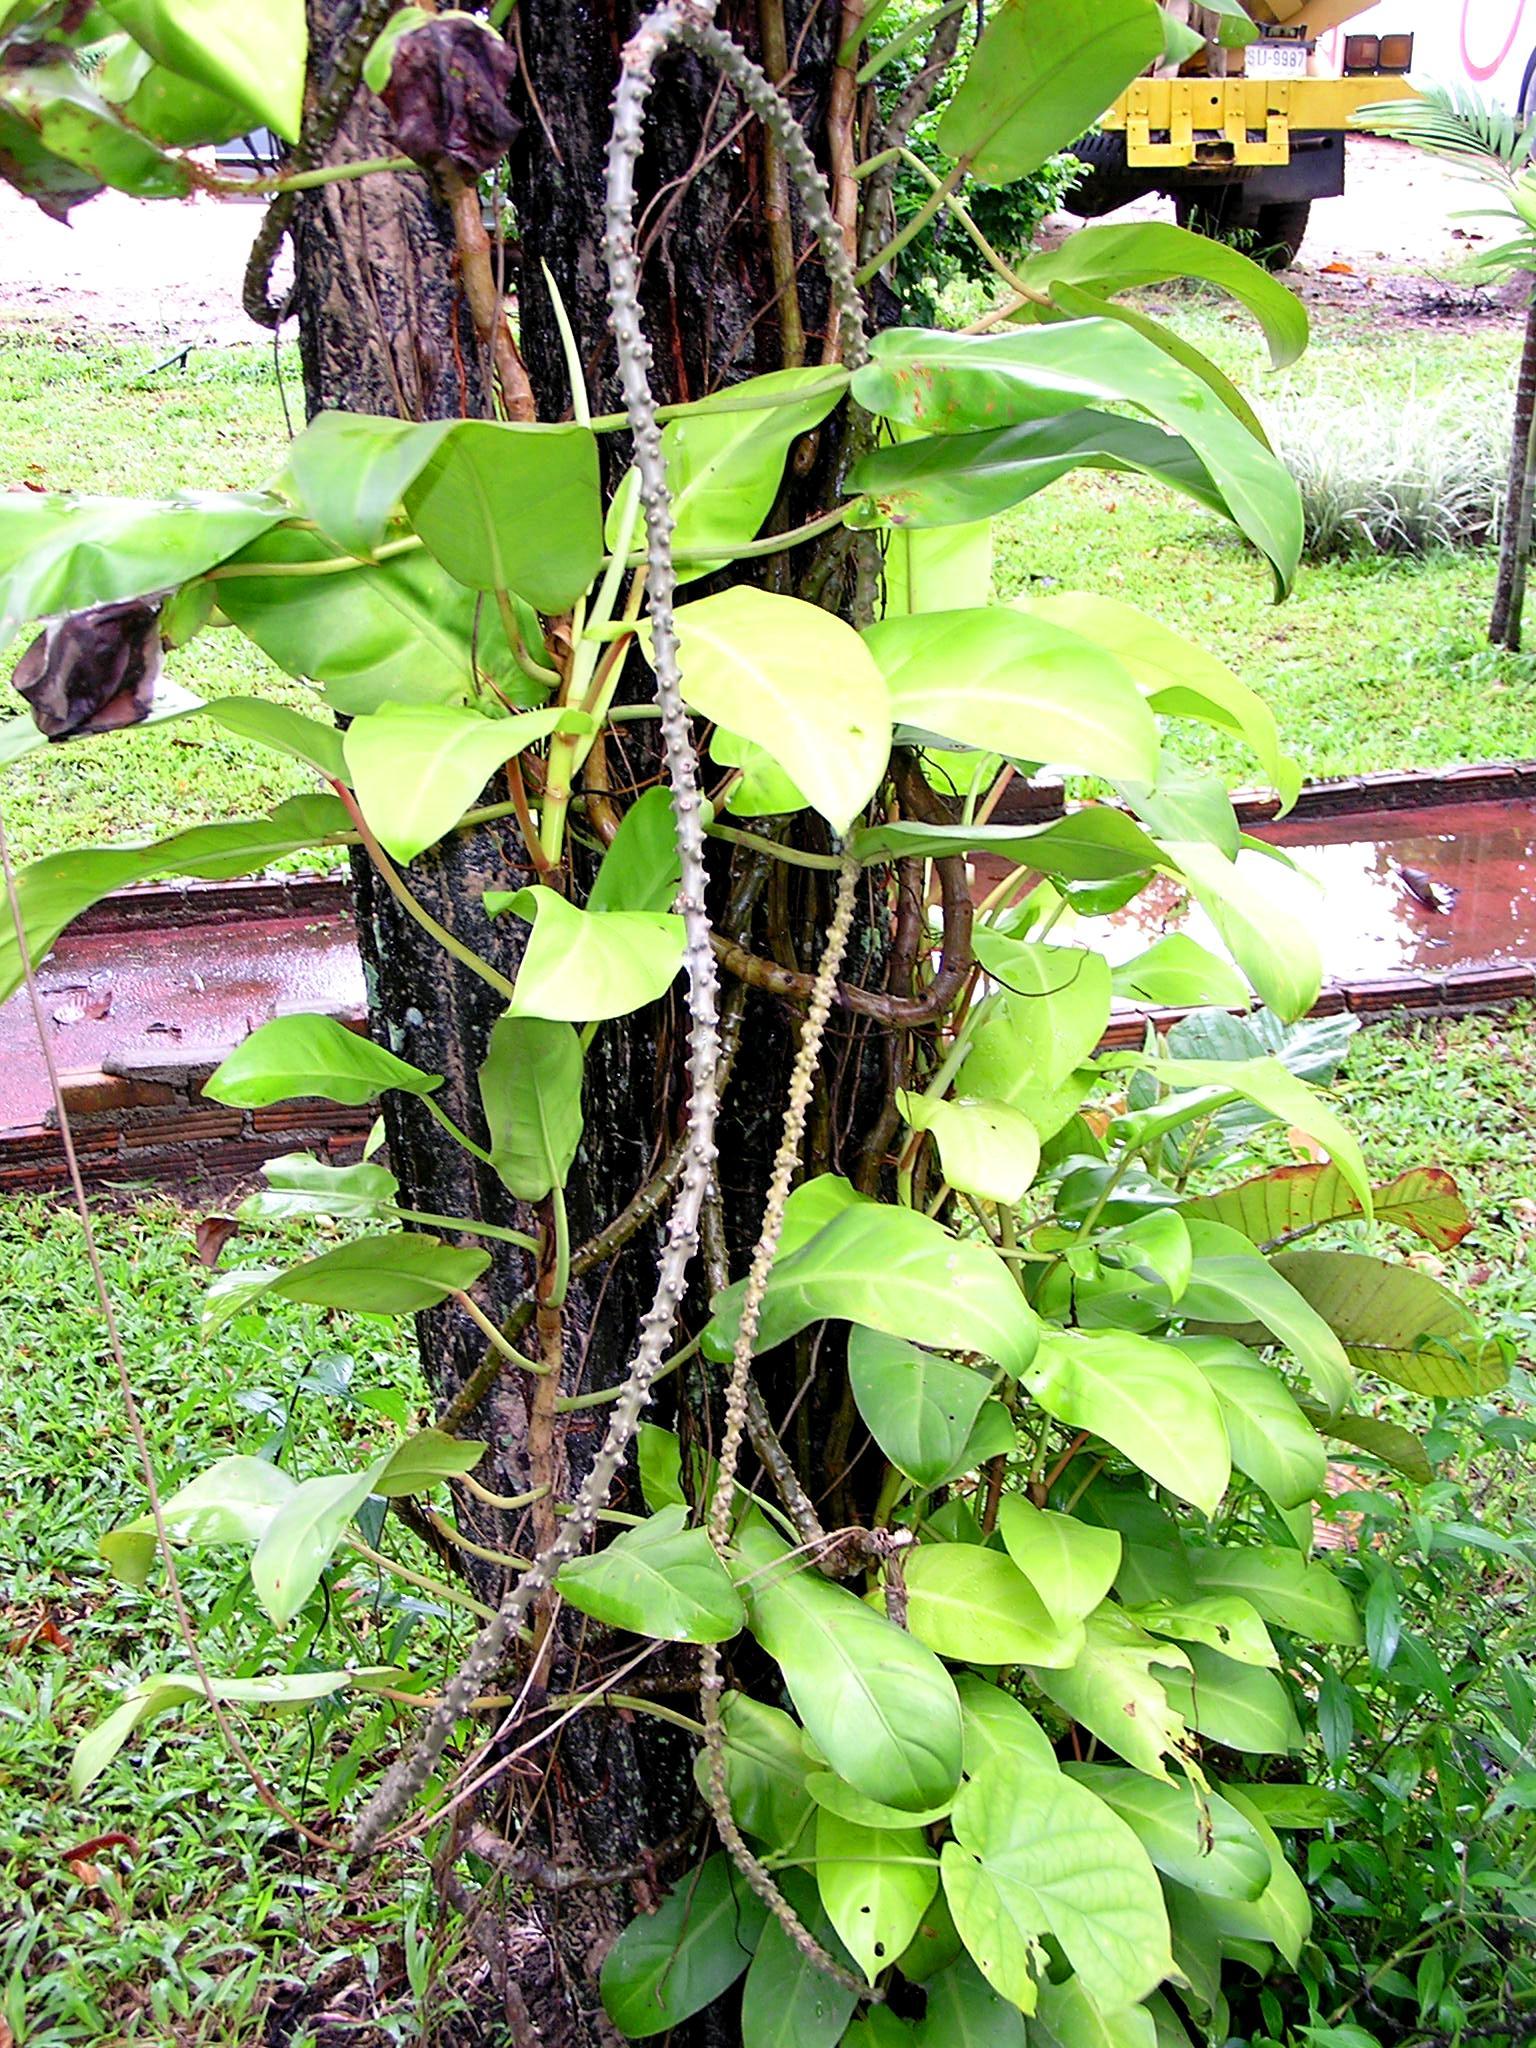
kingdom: Plantae
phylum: Tracheophyta
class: Magnoliopsida
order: Ranunculales
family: Menispermaceae
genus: Tinospora
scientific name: Tinospora crispa
